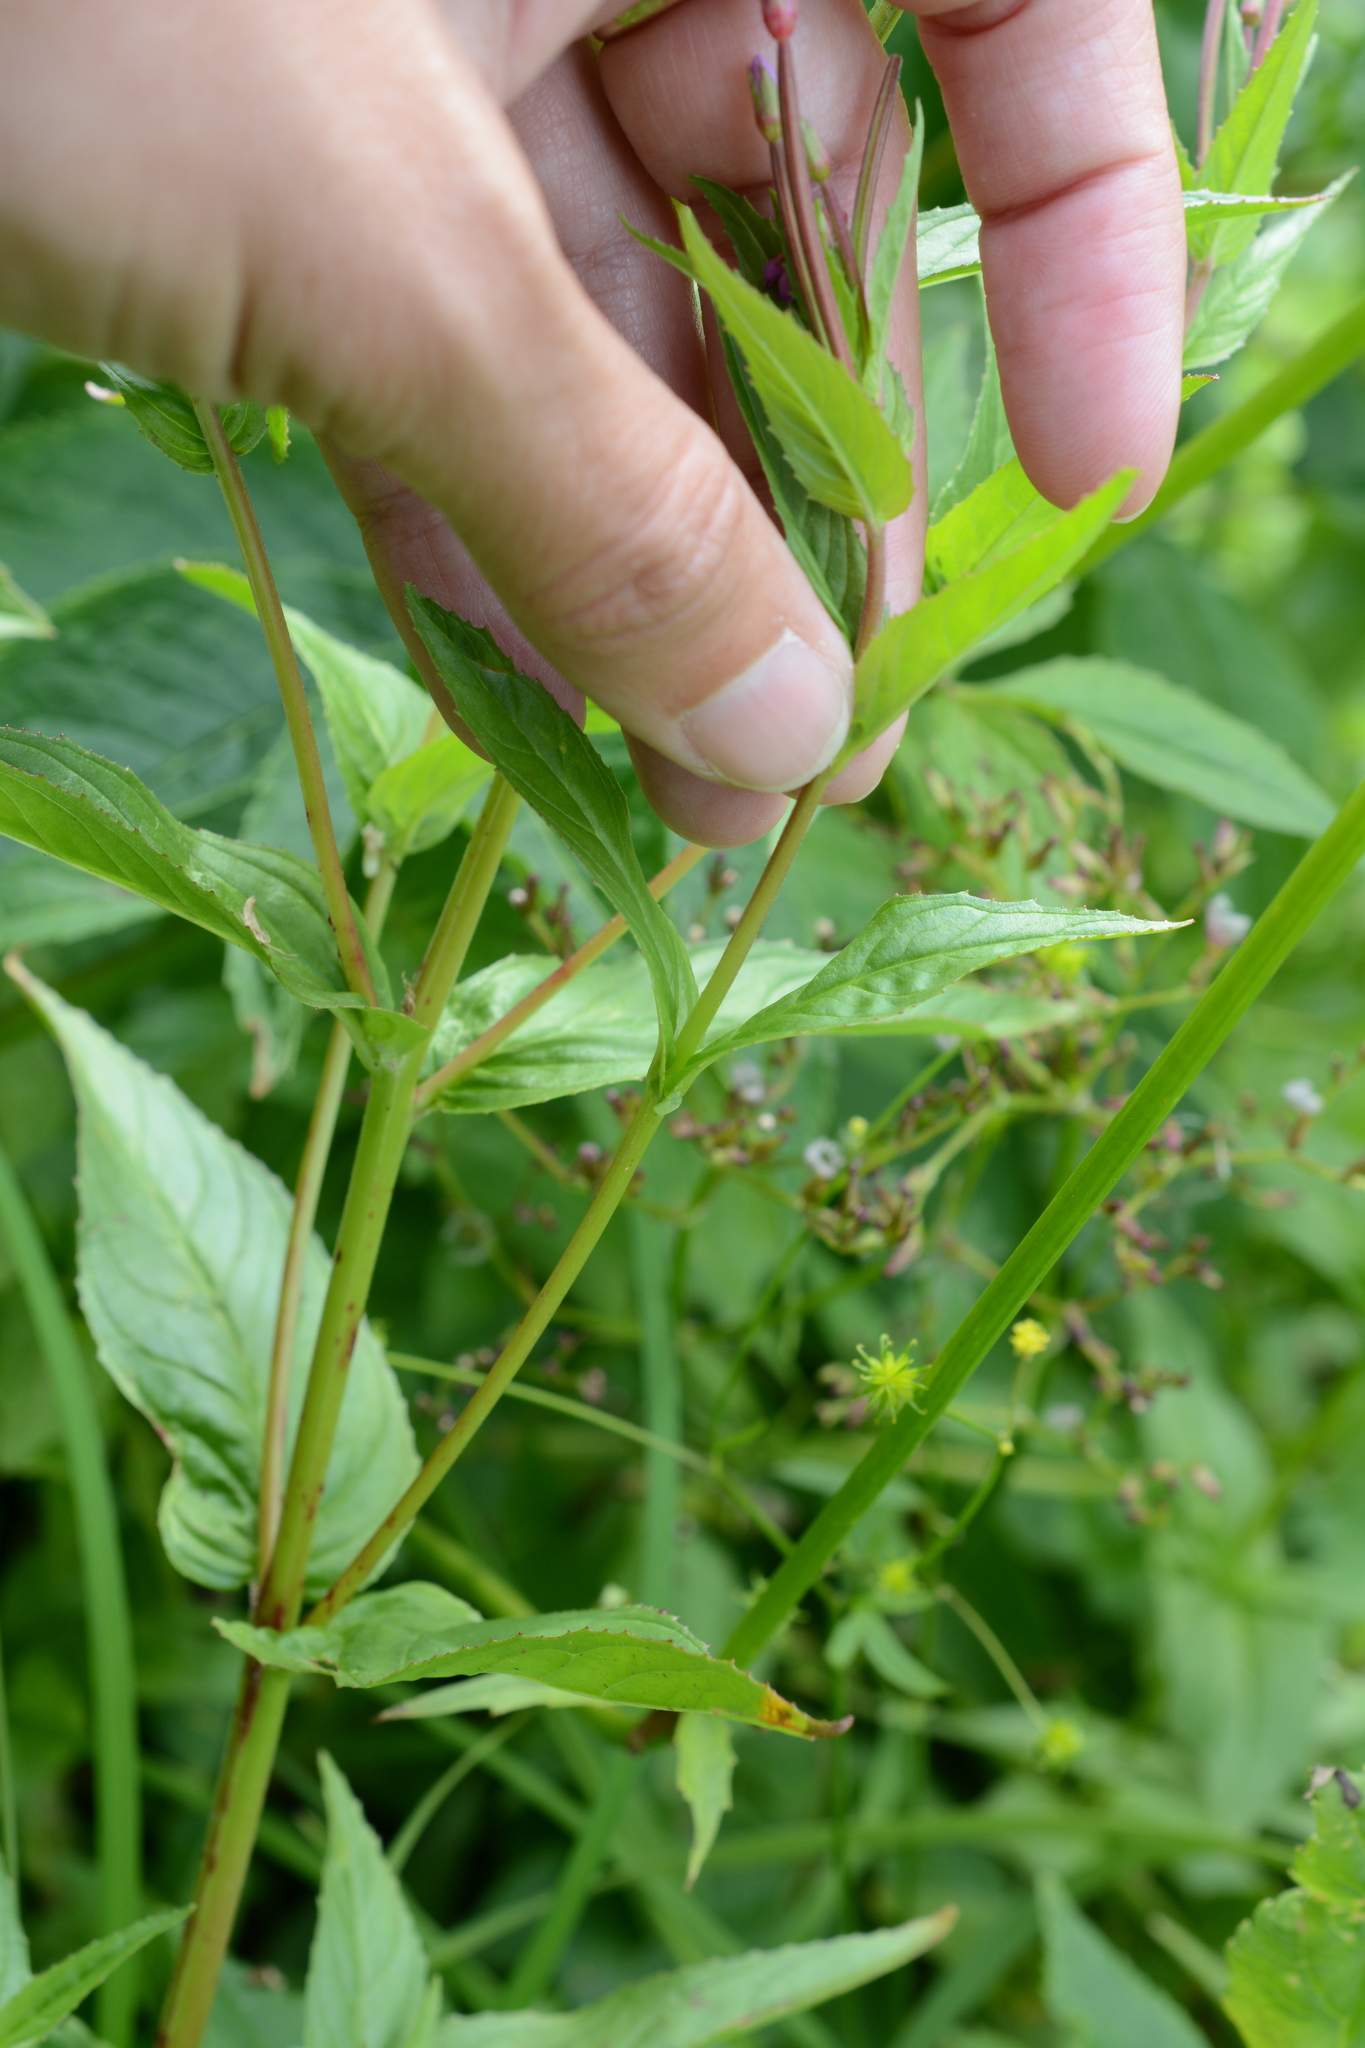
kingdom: Plantae
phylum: Tracheophyta
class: Magnoliopsida
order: Myrtales
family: Onagraceae
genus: Epilobium
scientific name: Epilobium ciliatum
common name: American willowherb
